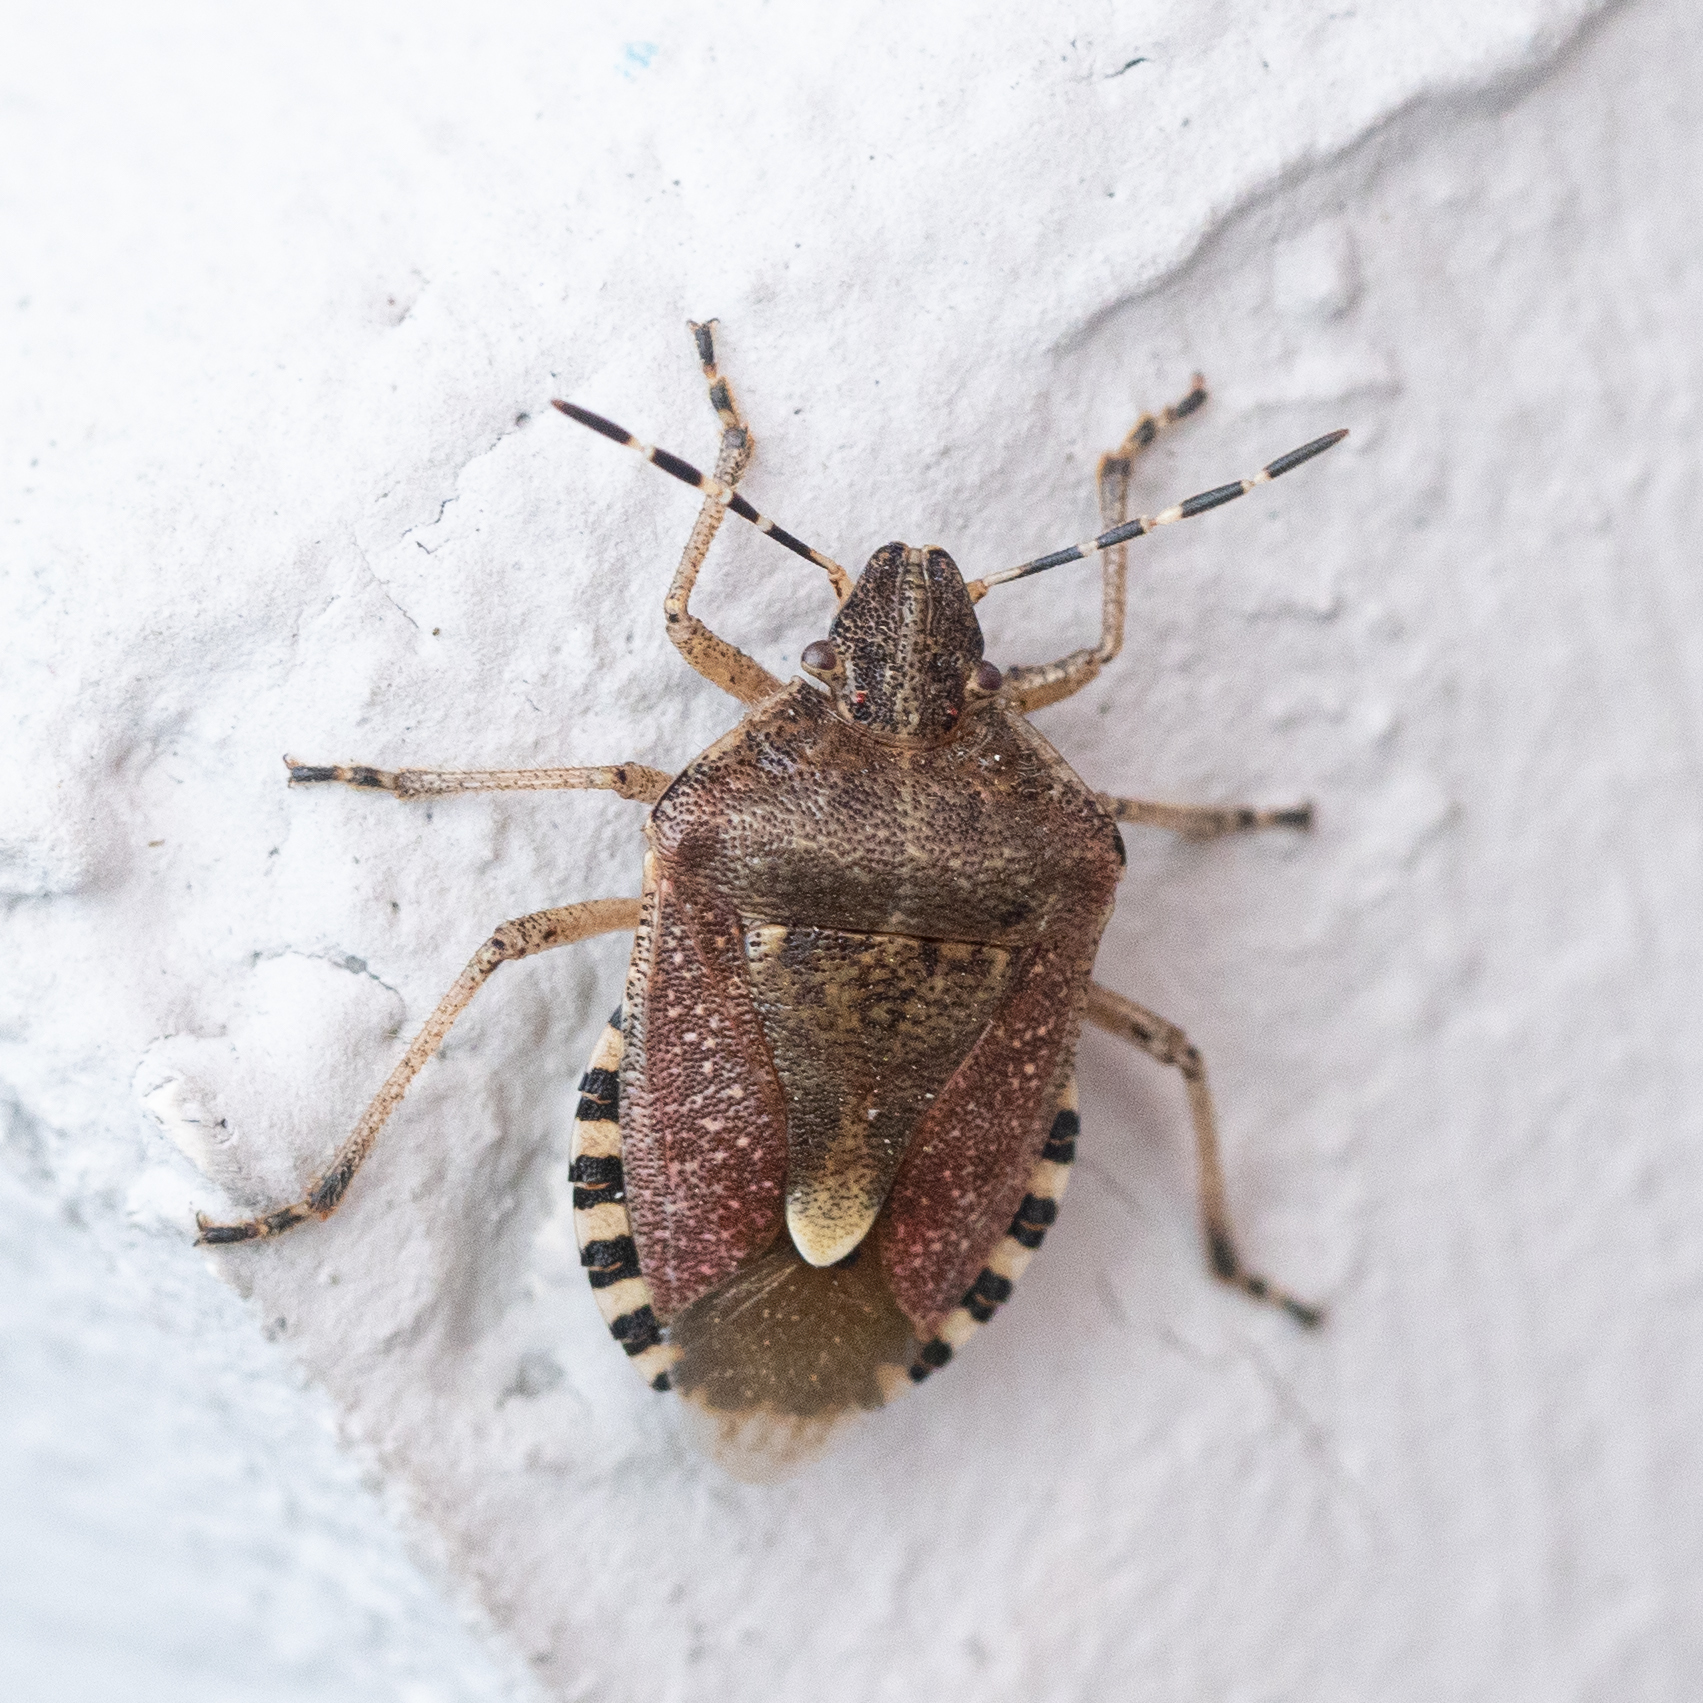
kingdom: Animalia
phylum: Arthropoda
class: Insecta
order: Hemiptera
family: Pentatomidae
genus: Dolycoris
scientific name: Dolycoris baccarum
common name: Sloe bug
